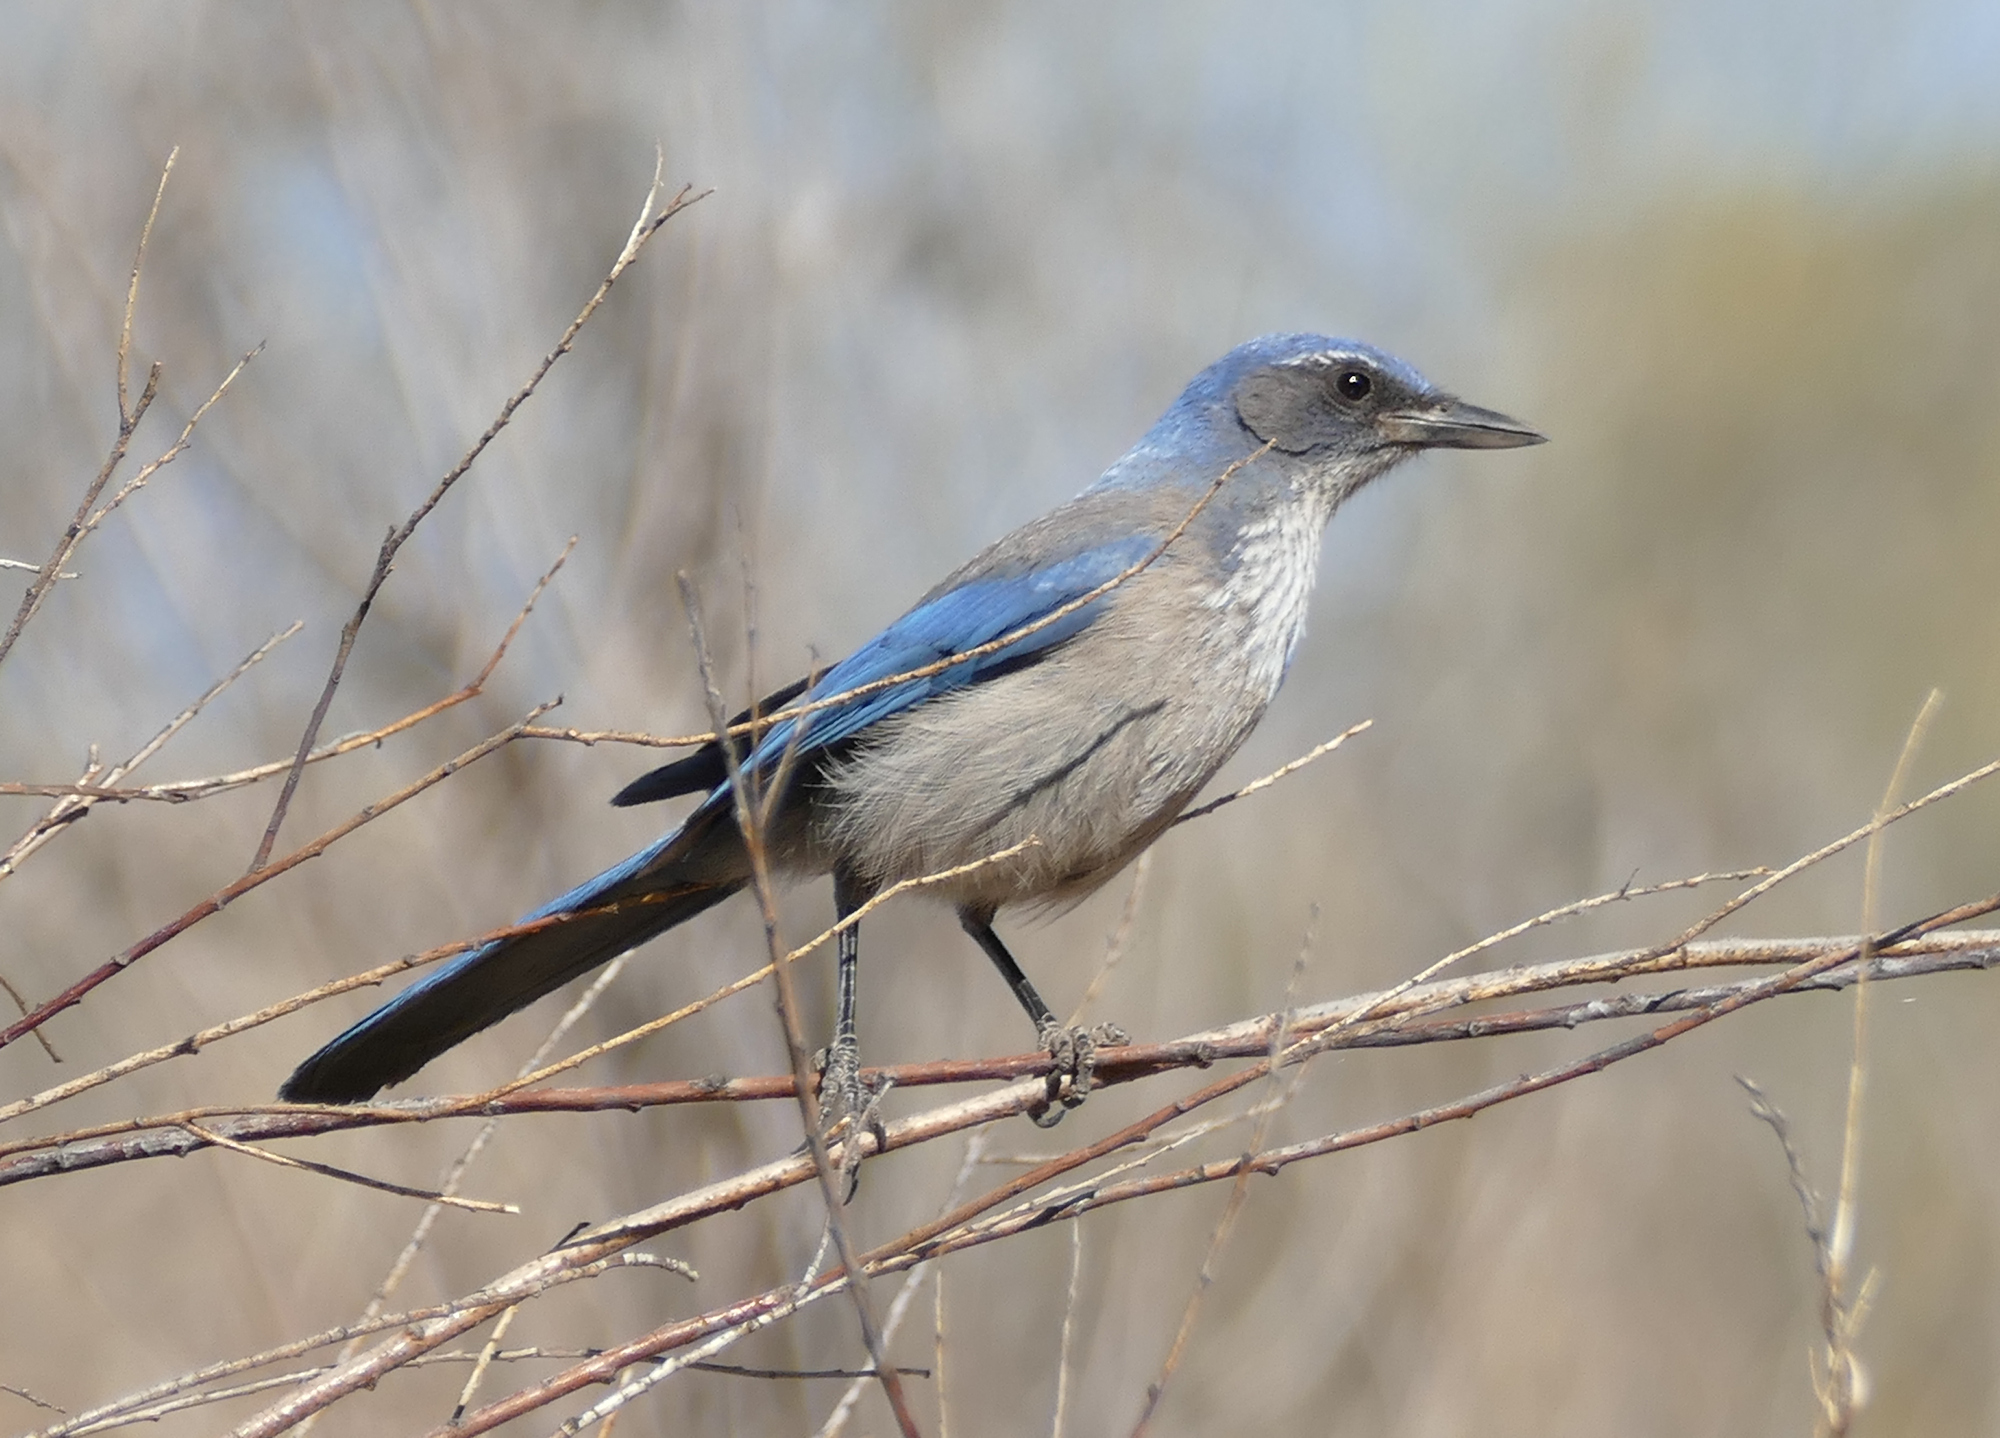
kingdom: Animalia
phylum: Chordata
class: Aves
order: Passeriformes
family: Corvidae
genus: Aphelocoma
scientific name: Aphelocoma woodhouseii
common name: Woodhouse's scrub-jay
